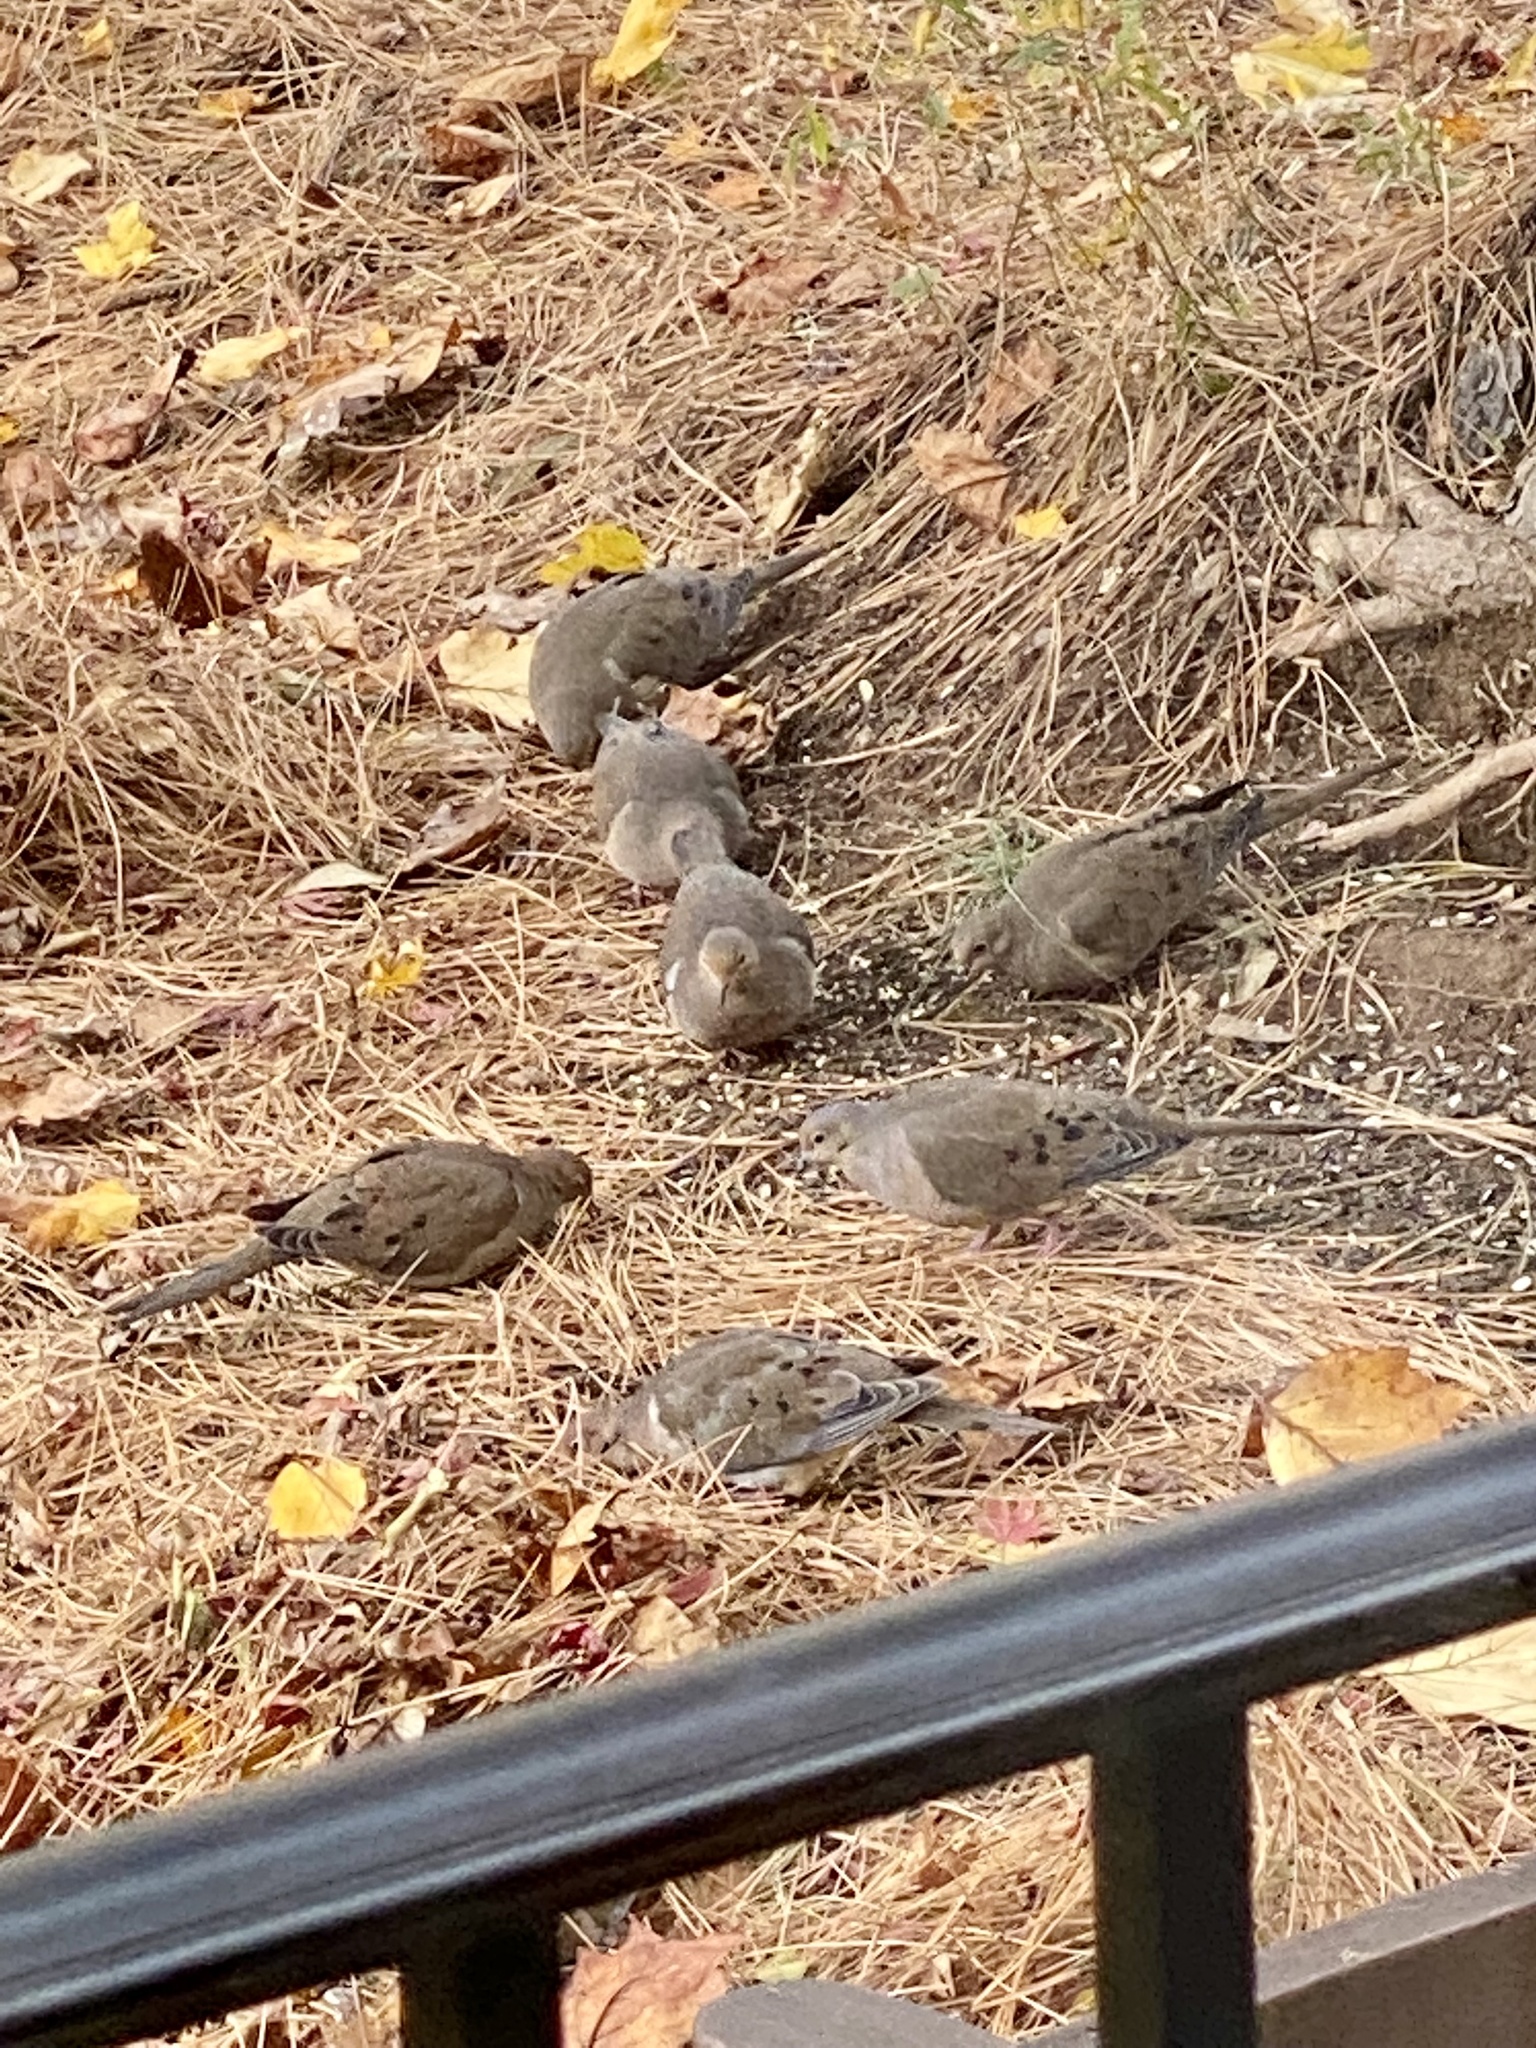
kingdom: Animalia
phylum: Chordata
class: Aves
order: Columbiformes
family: Columbidae
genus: Zenaida
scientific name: Zenaida macroura
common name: Mourning dove
